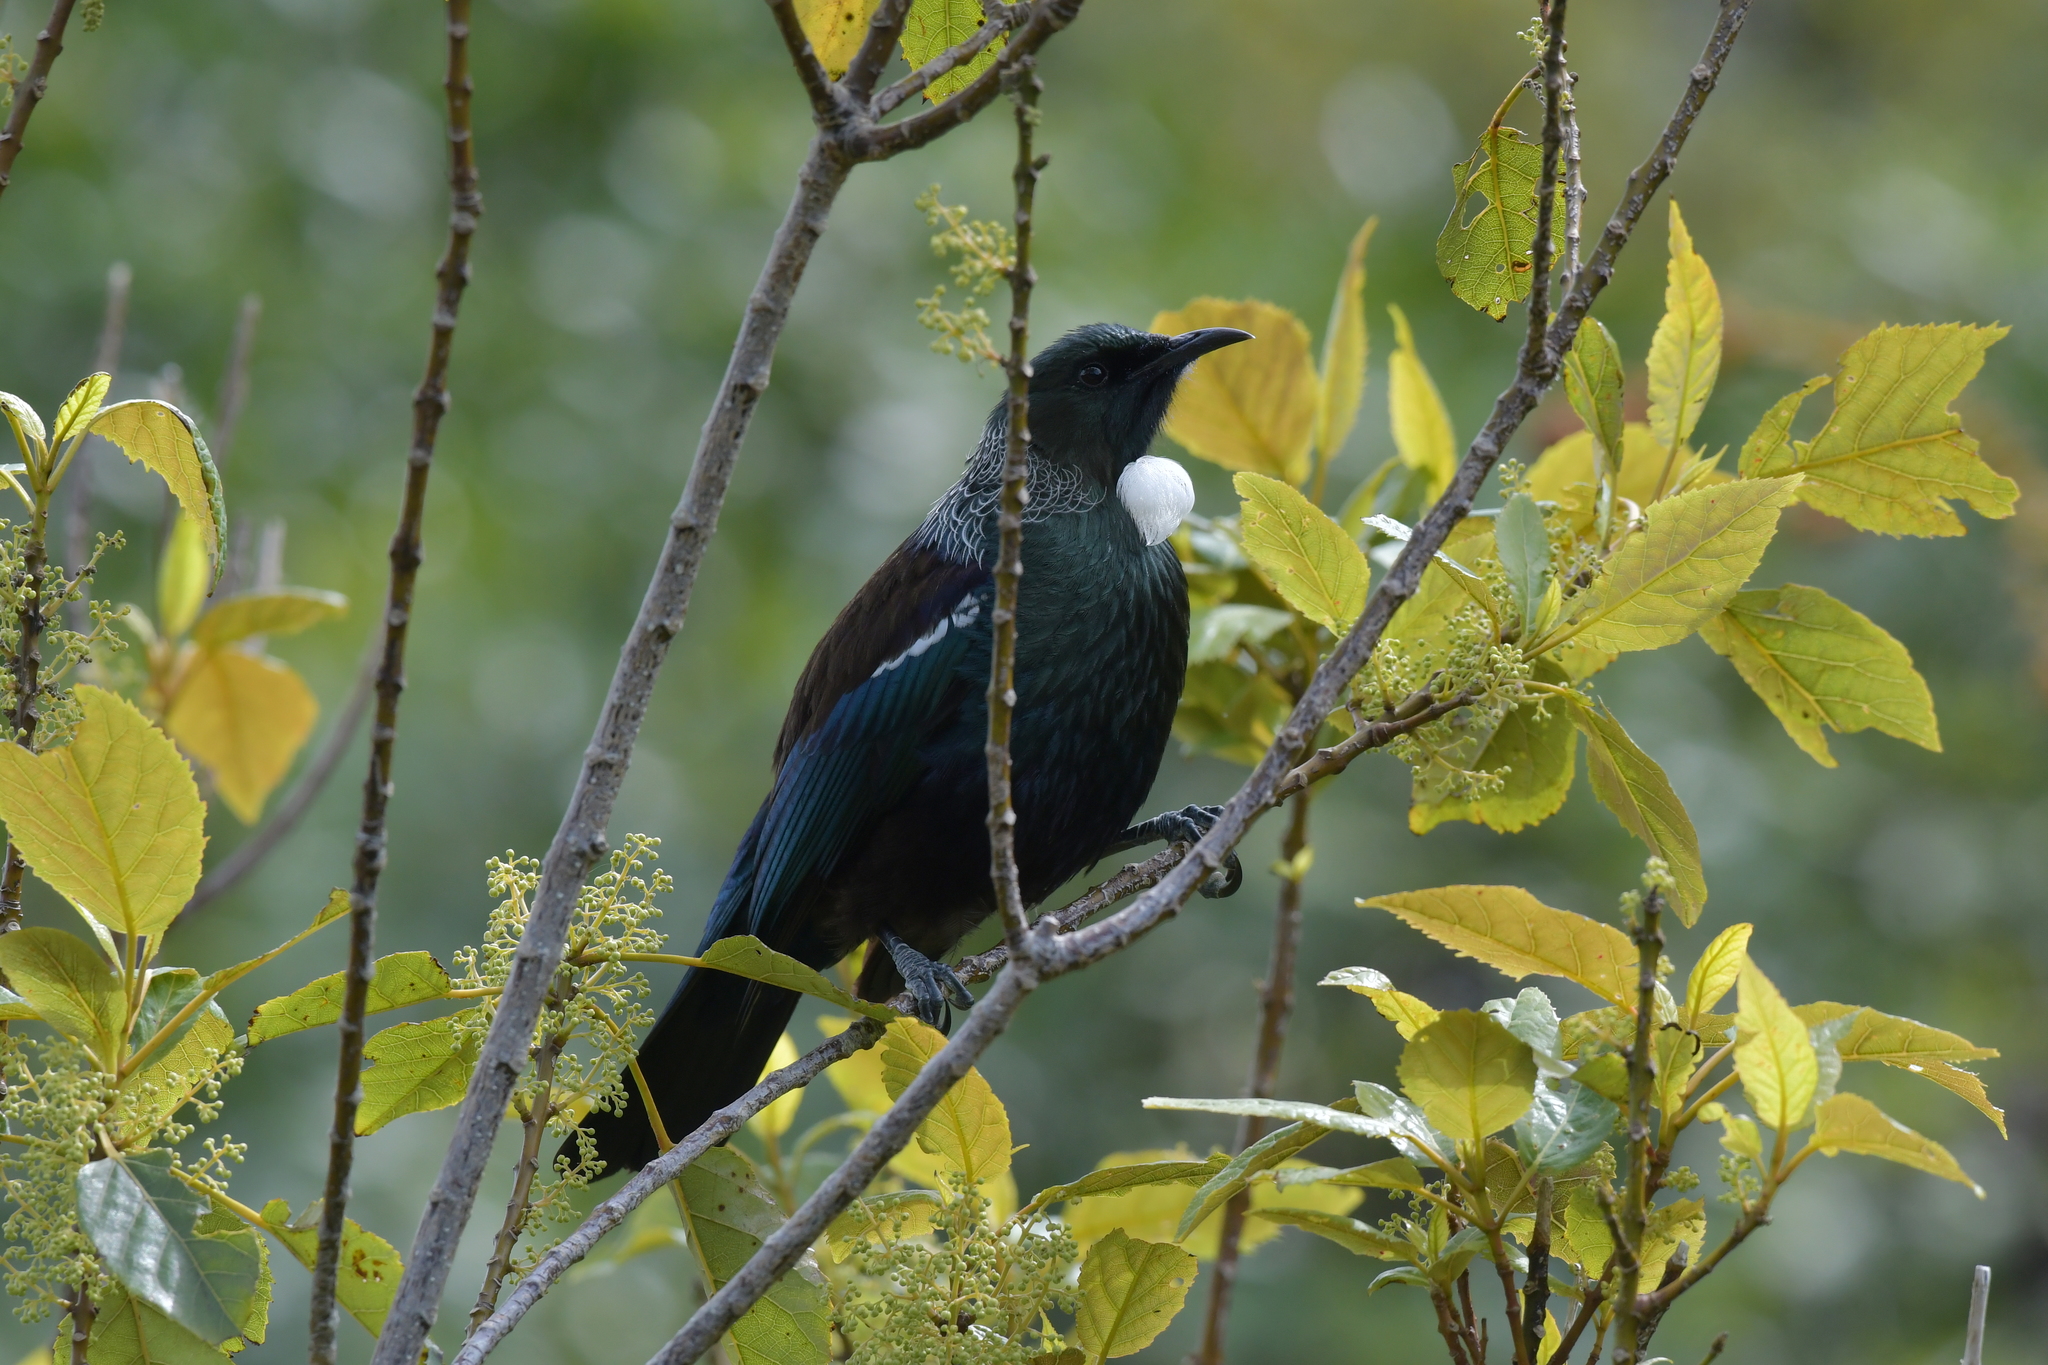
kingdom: Animalia
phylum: Chordata
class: Aves
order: Passeriformes
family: Meliphagidae
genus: Prosthemadera
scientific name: Prosthemadera novaeseelandiae
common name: Tui
